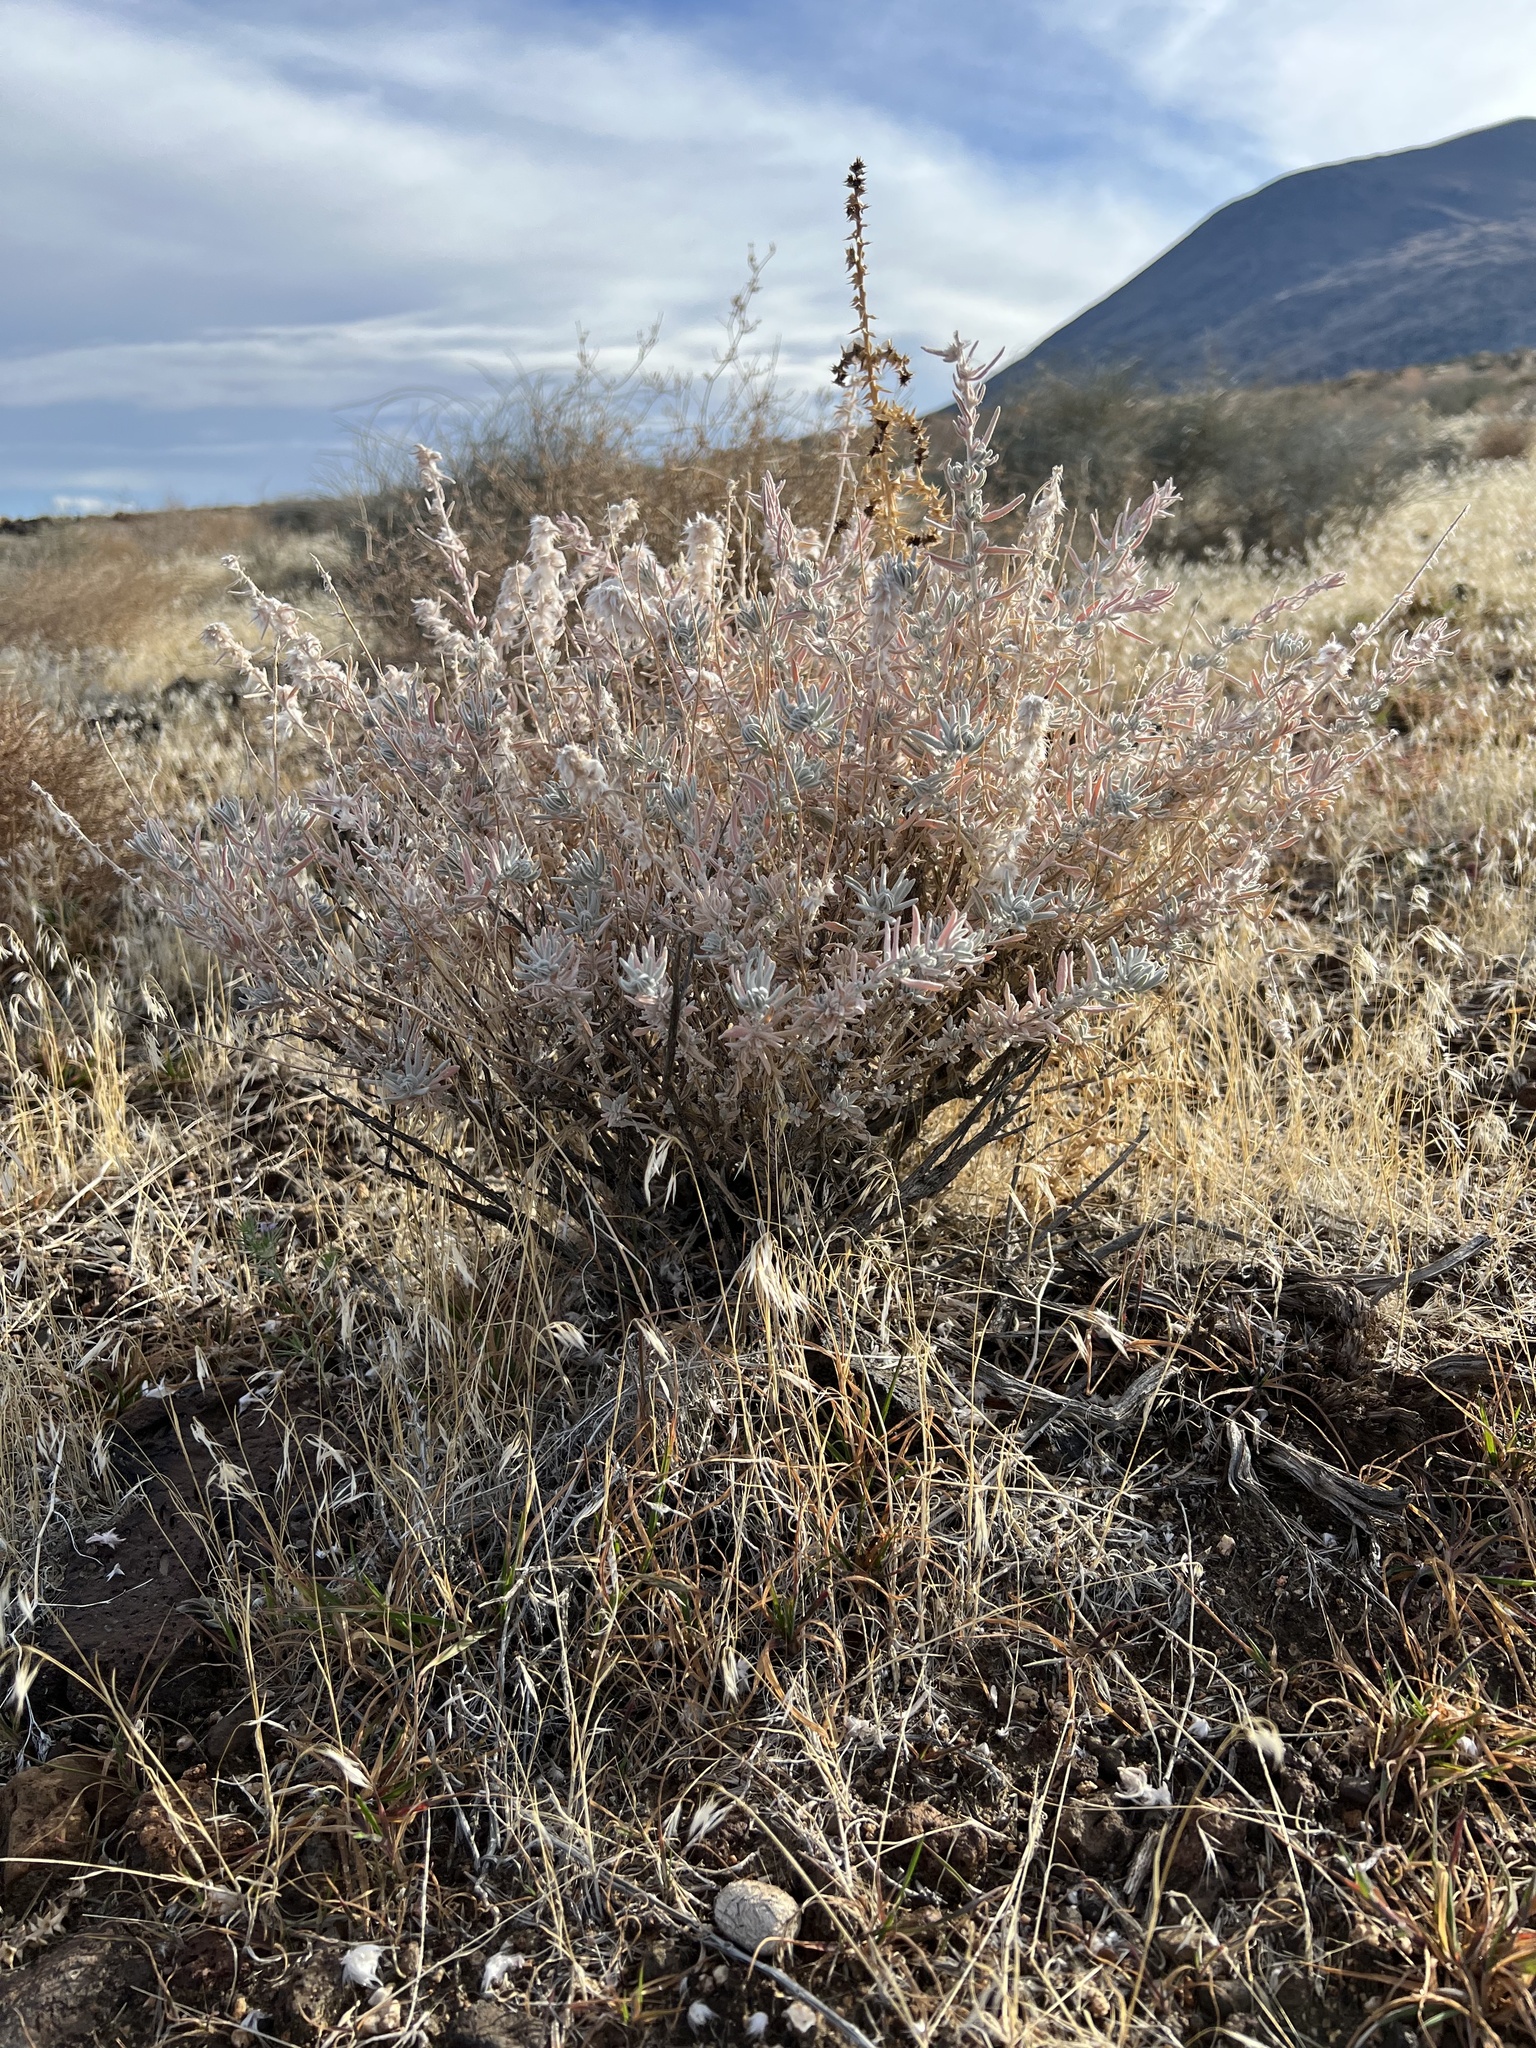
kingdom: Plantae
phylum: Tracheophyta
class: Magnoliopsida
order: Caryophyllales
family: Amaranthaceae
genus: Krascheninnikovia
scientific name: Krascheninnikovia lanata
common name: Winterfat
